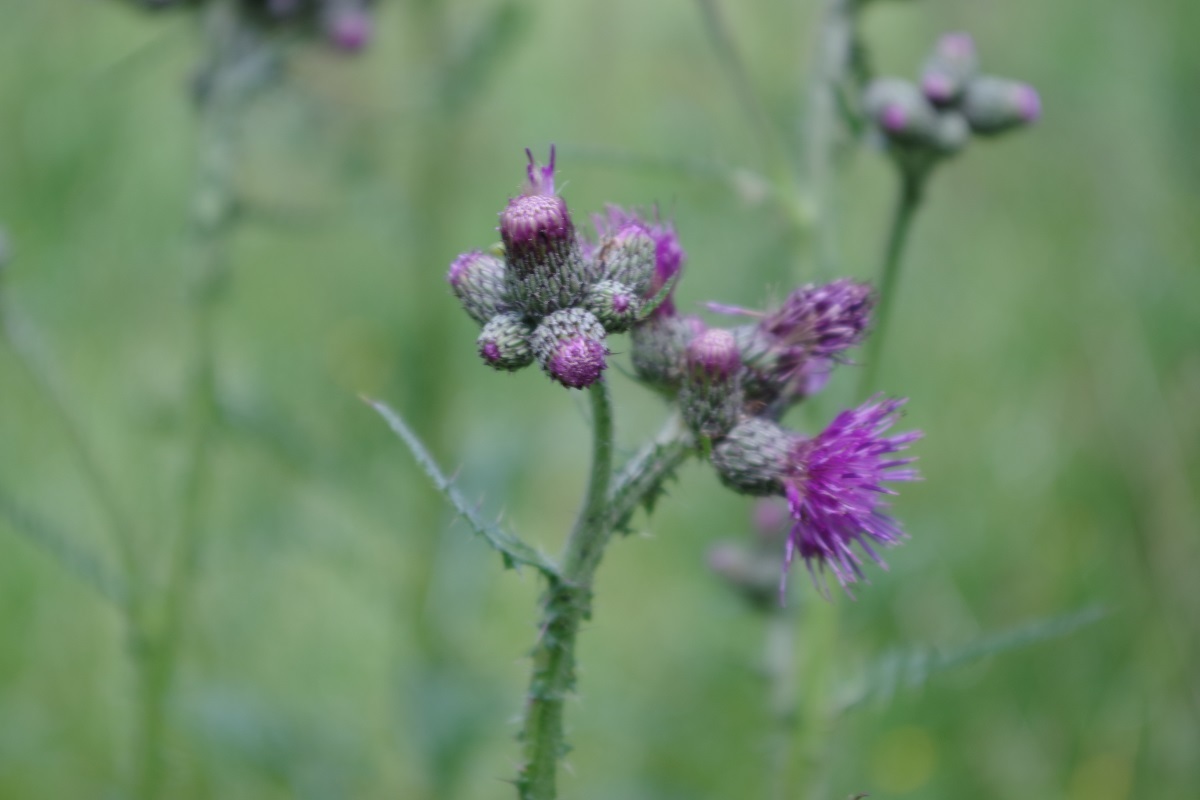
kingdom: Plantae
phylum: Tracheophyta
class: Magnoliopsida
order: Asterales
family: Asteraceae
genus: Cirsium
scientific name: Cirsium palustre
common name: Marsh thistle
